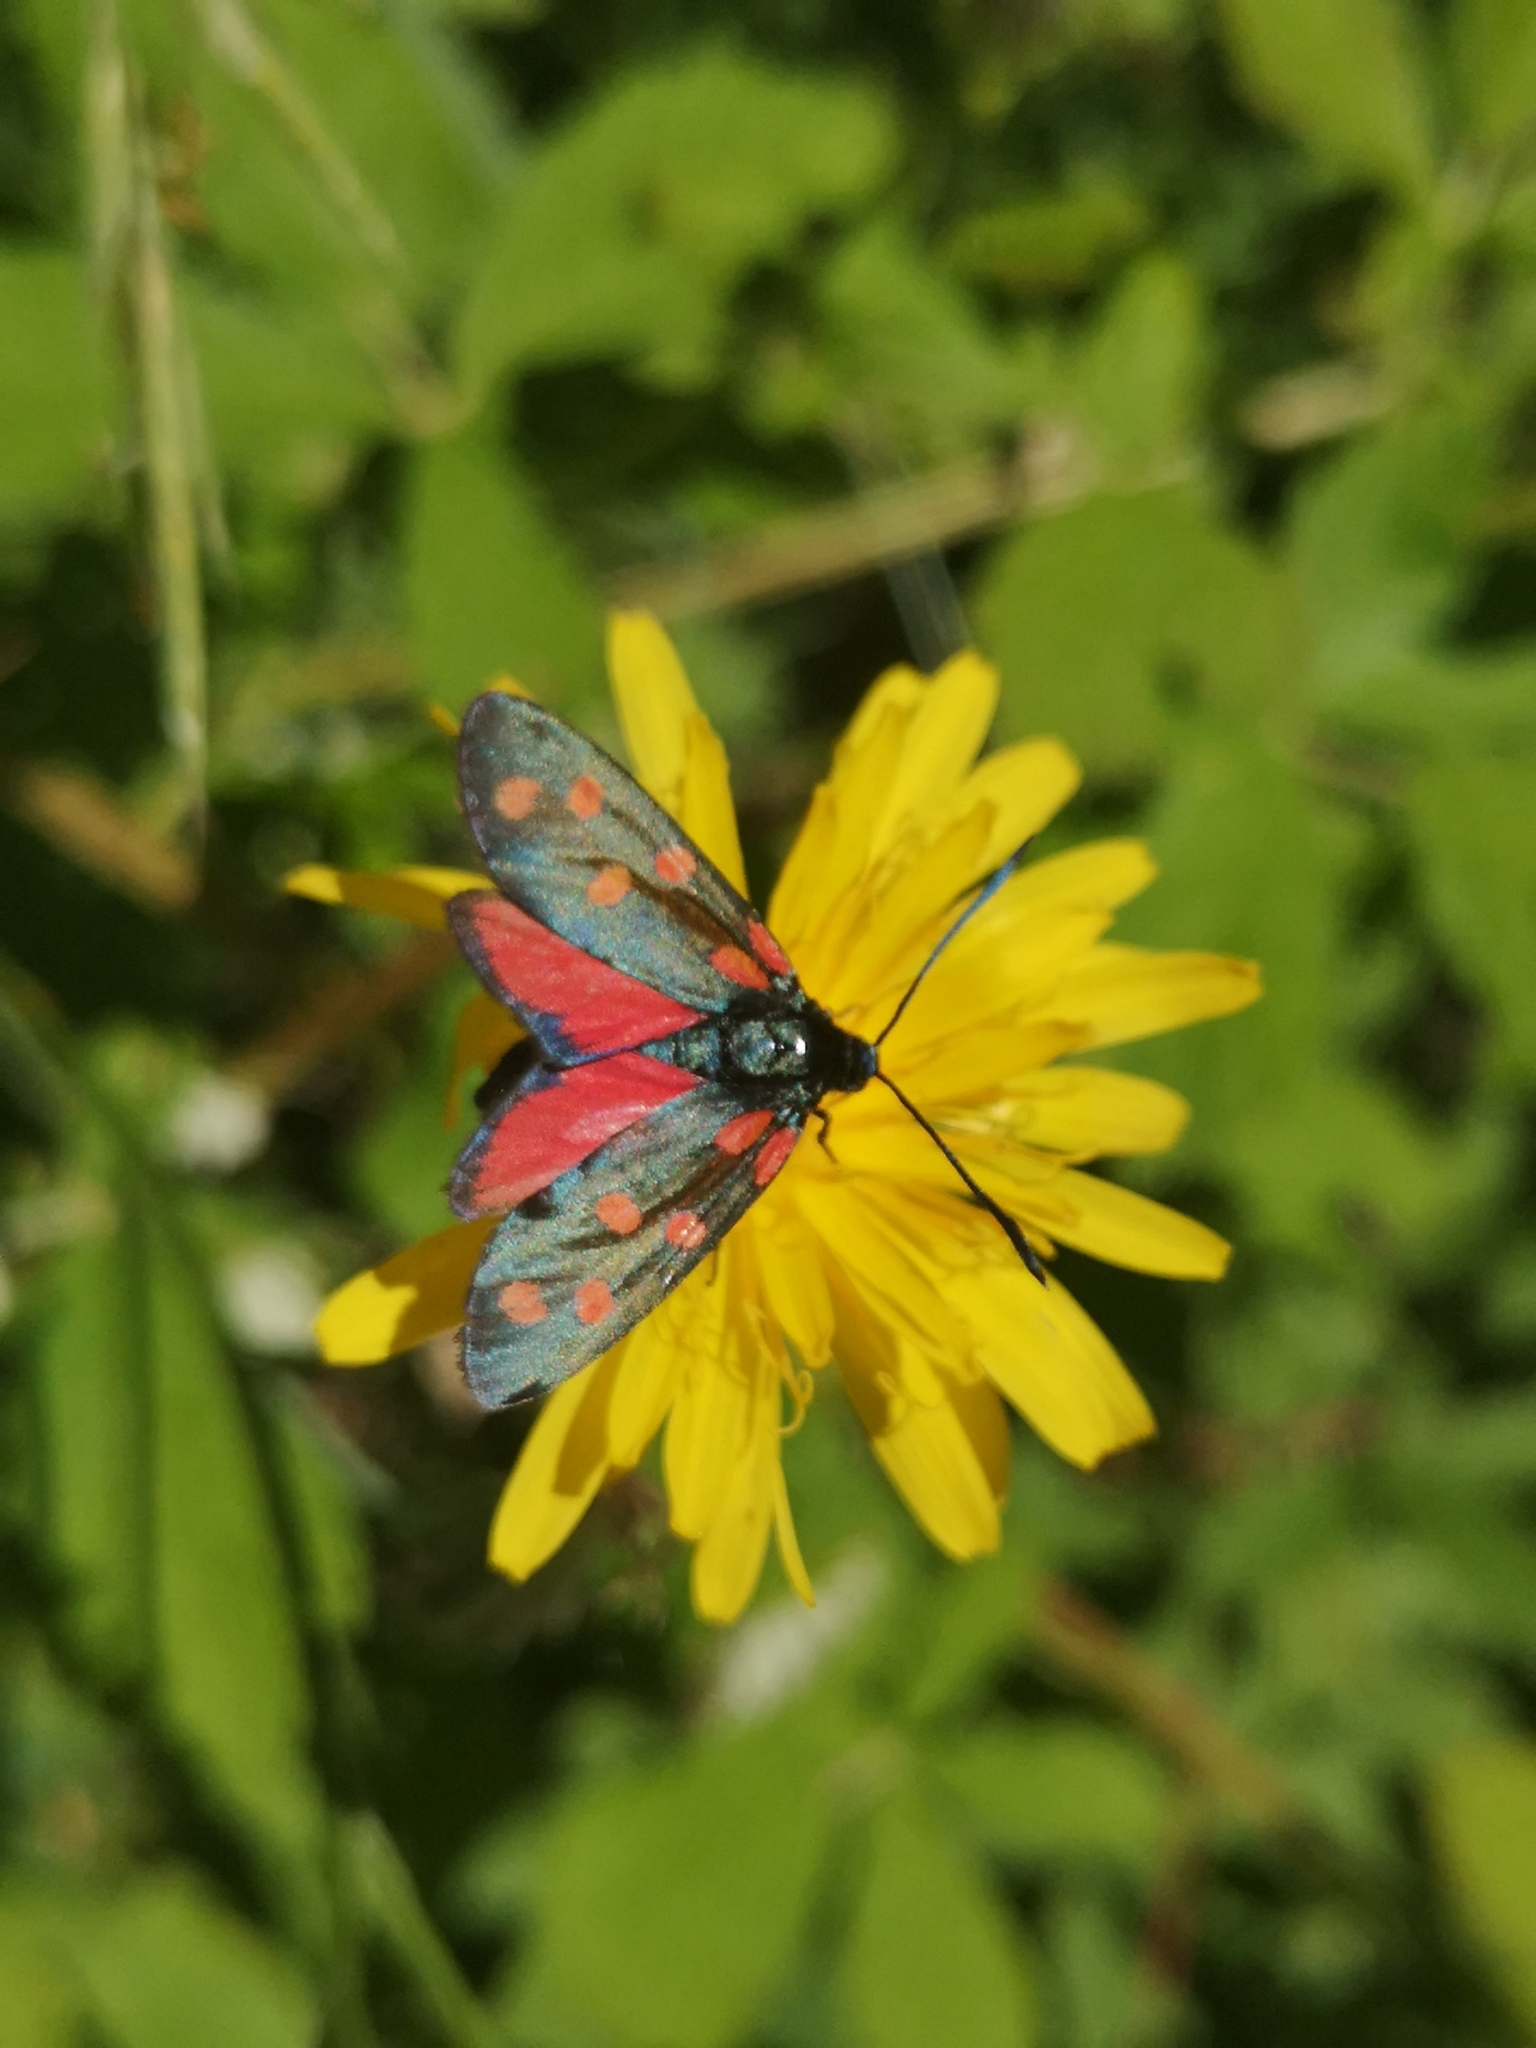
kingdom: Animalia
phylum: Arthropoda
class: Insecta
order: Lepidoptera
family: Zygaenidae
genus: Zygaena
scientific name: Zygaena transalpina
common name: Southern six spot burnet
